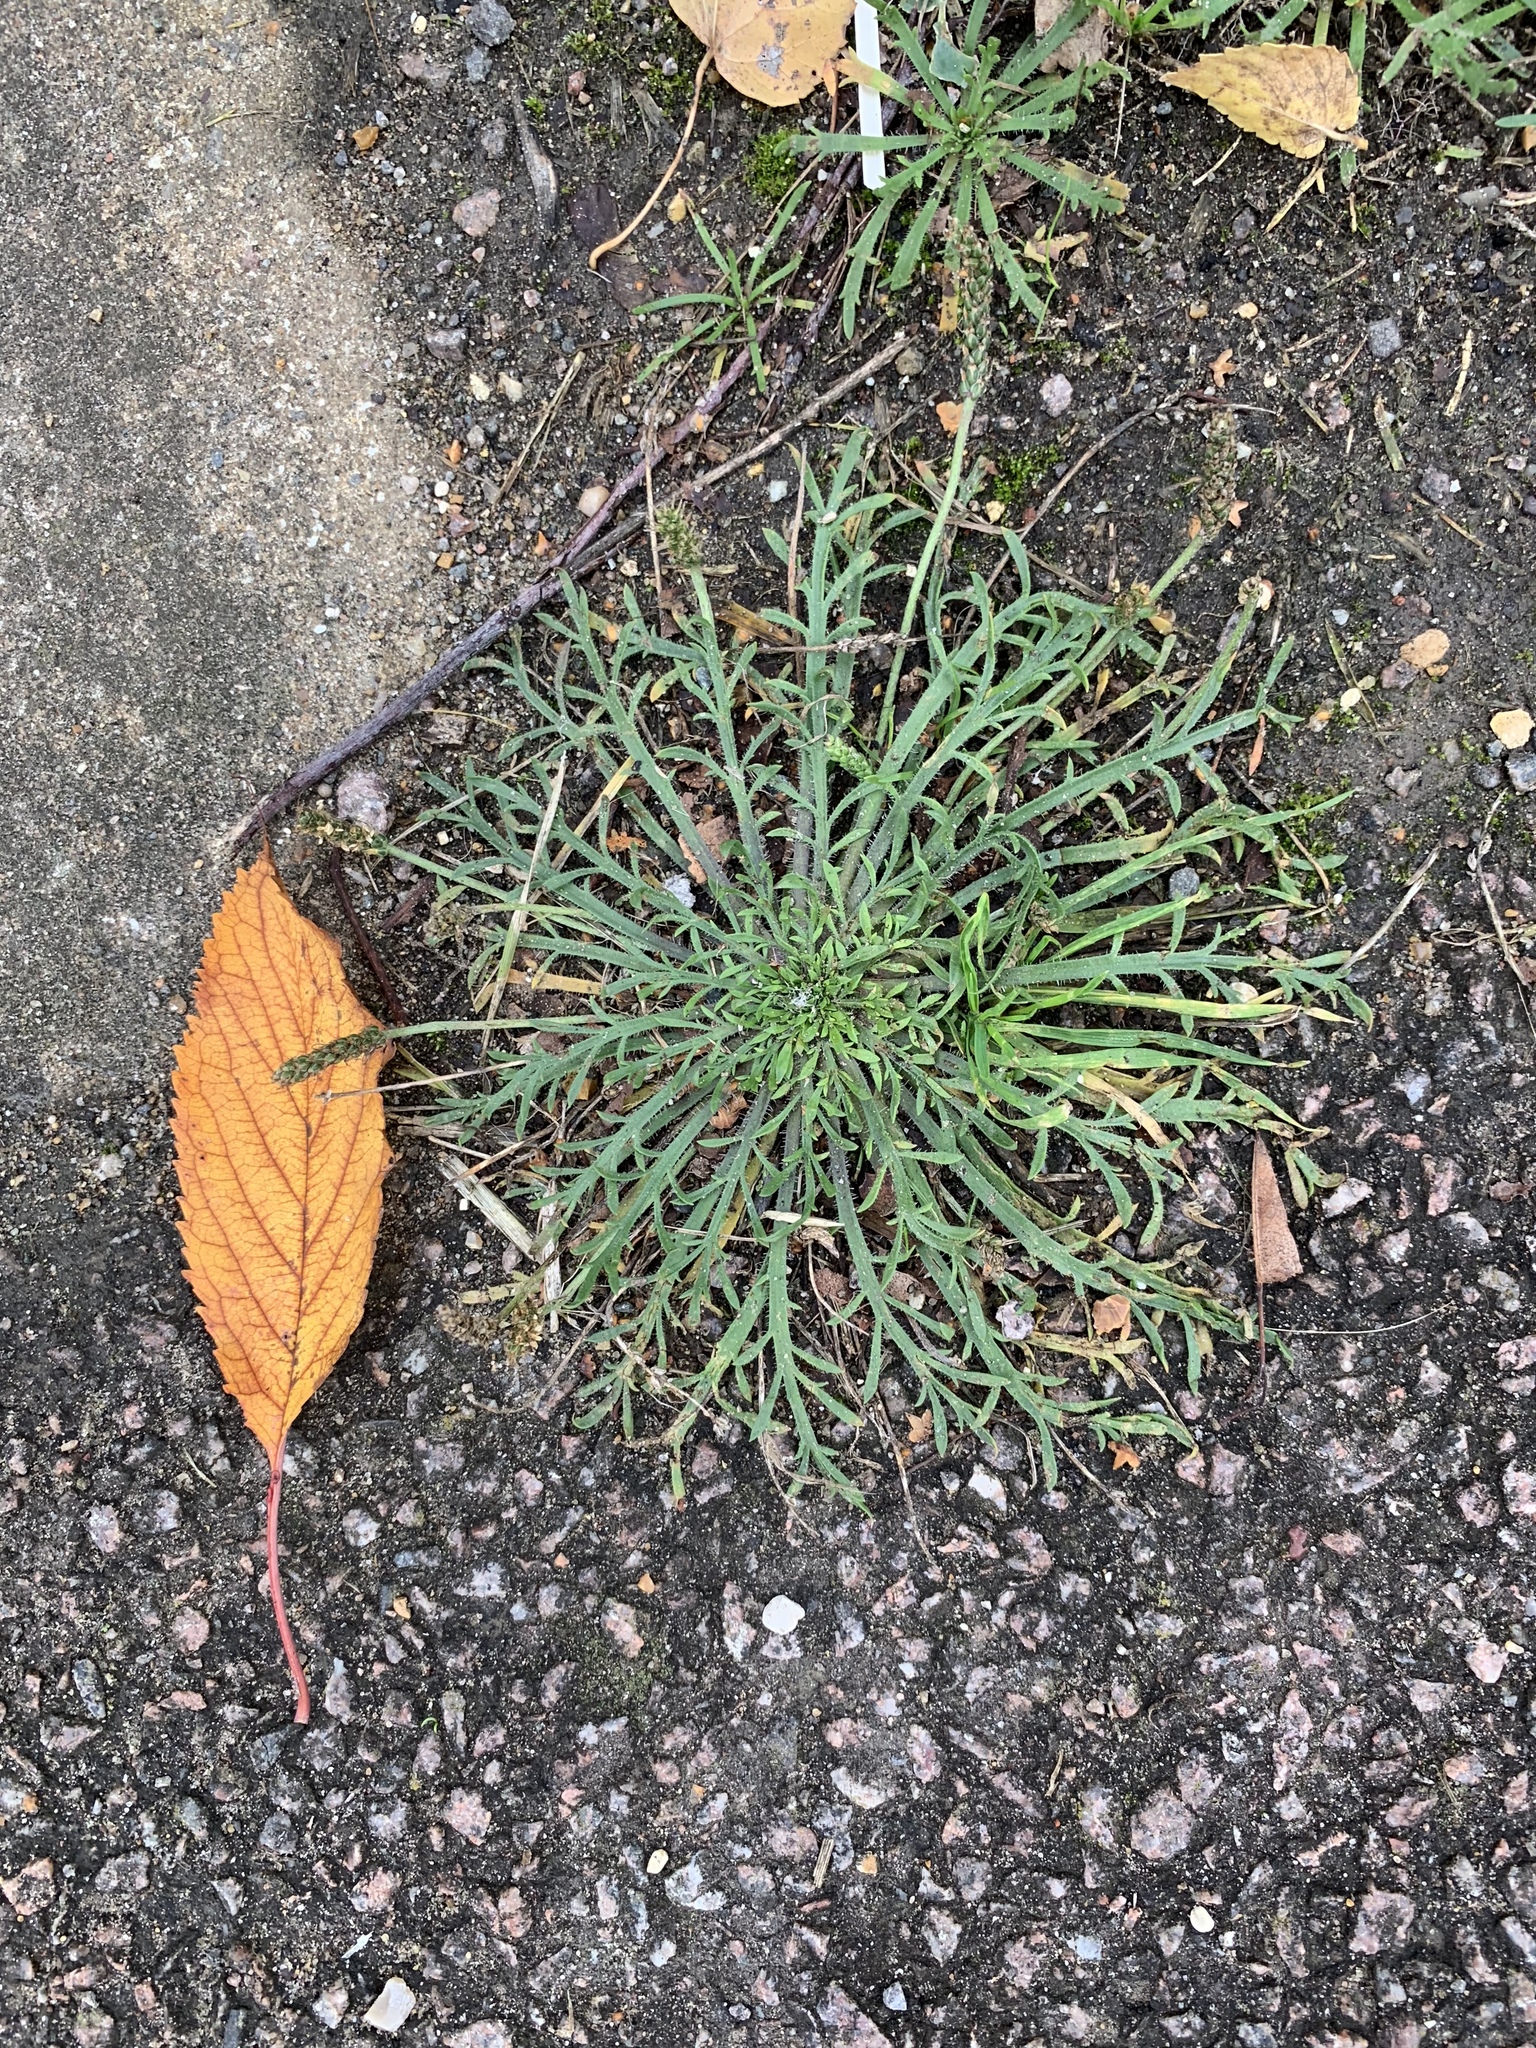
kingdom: Plantae
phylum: Tracheophyta
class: Magnoliopsida
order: Lamiales
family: Plantaginaceae
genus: Plantago
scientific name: Plantago coronopus
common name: Buck's-horn plantain
